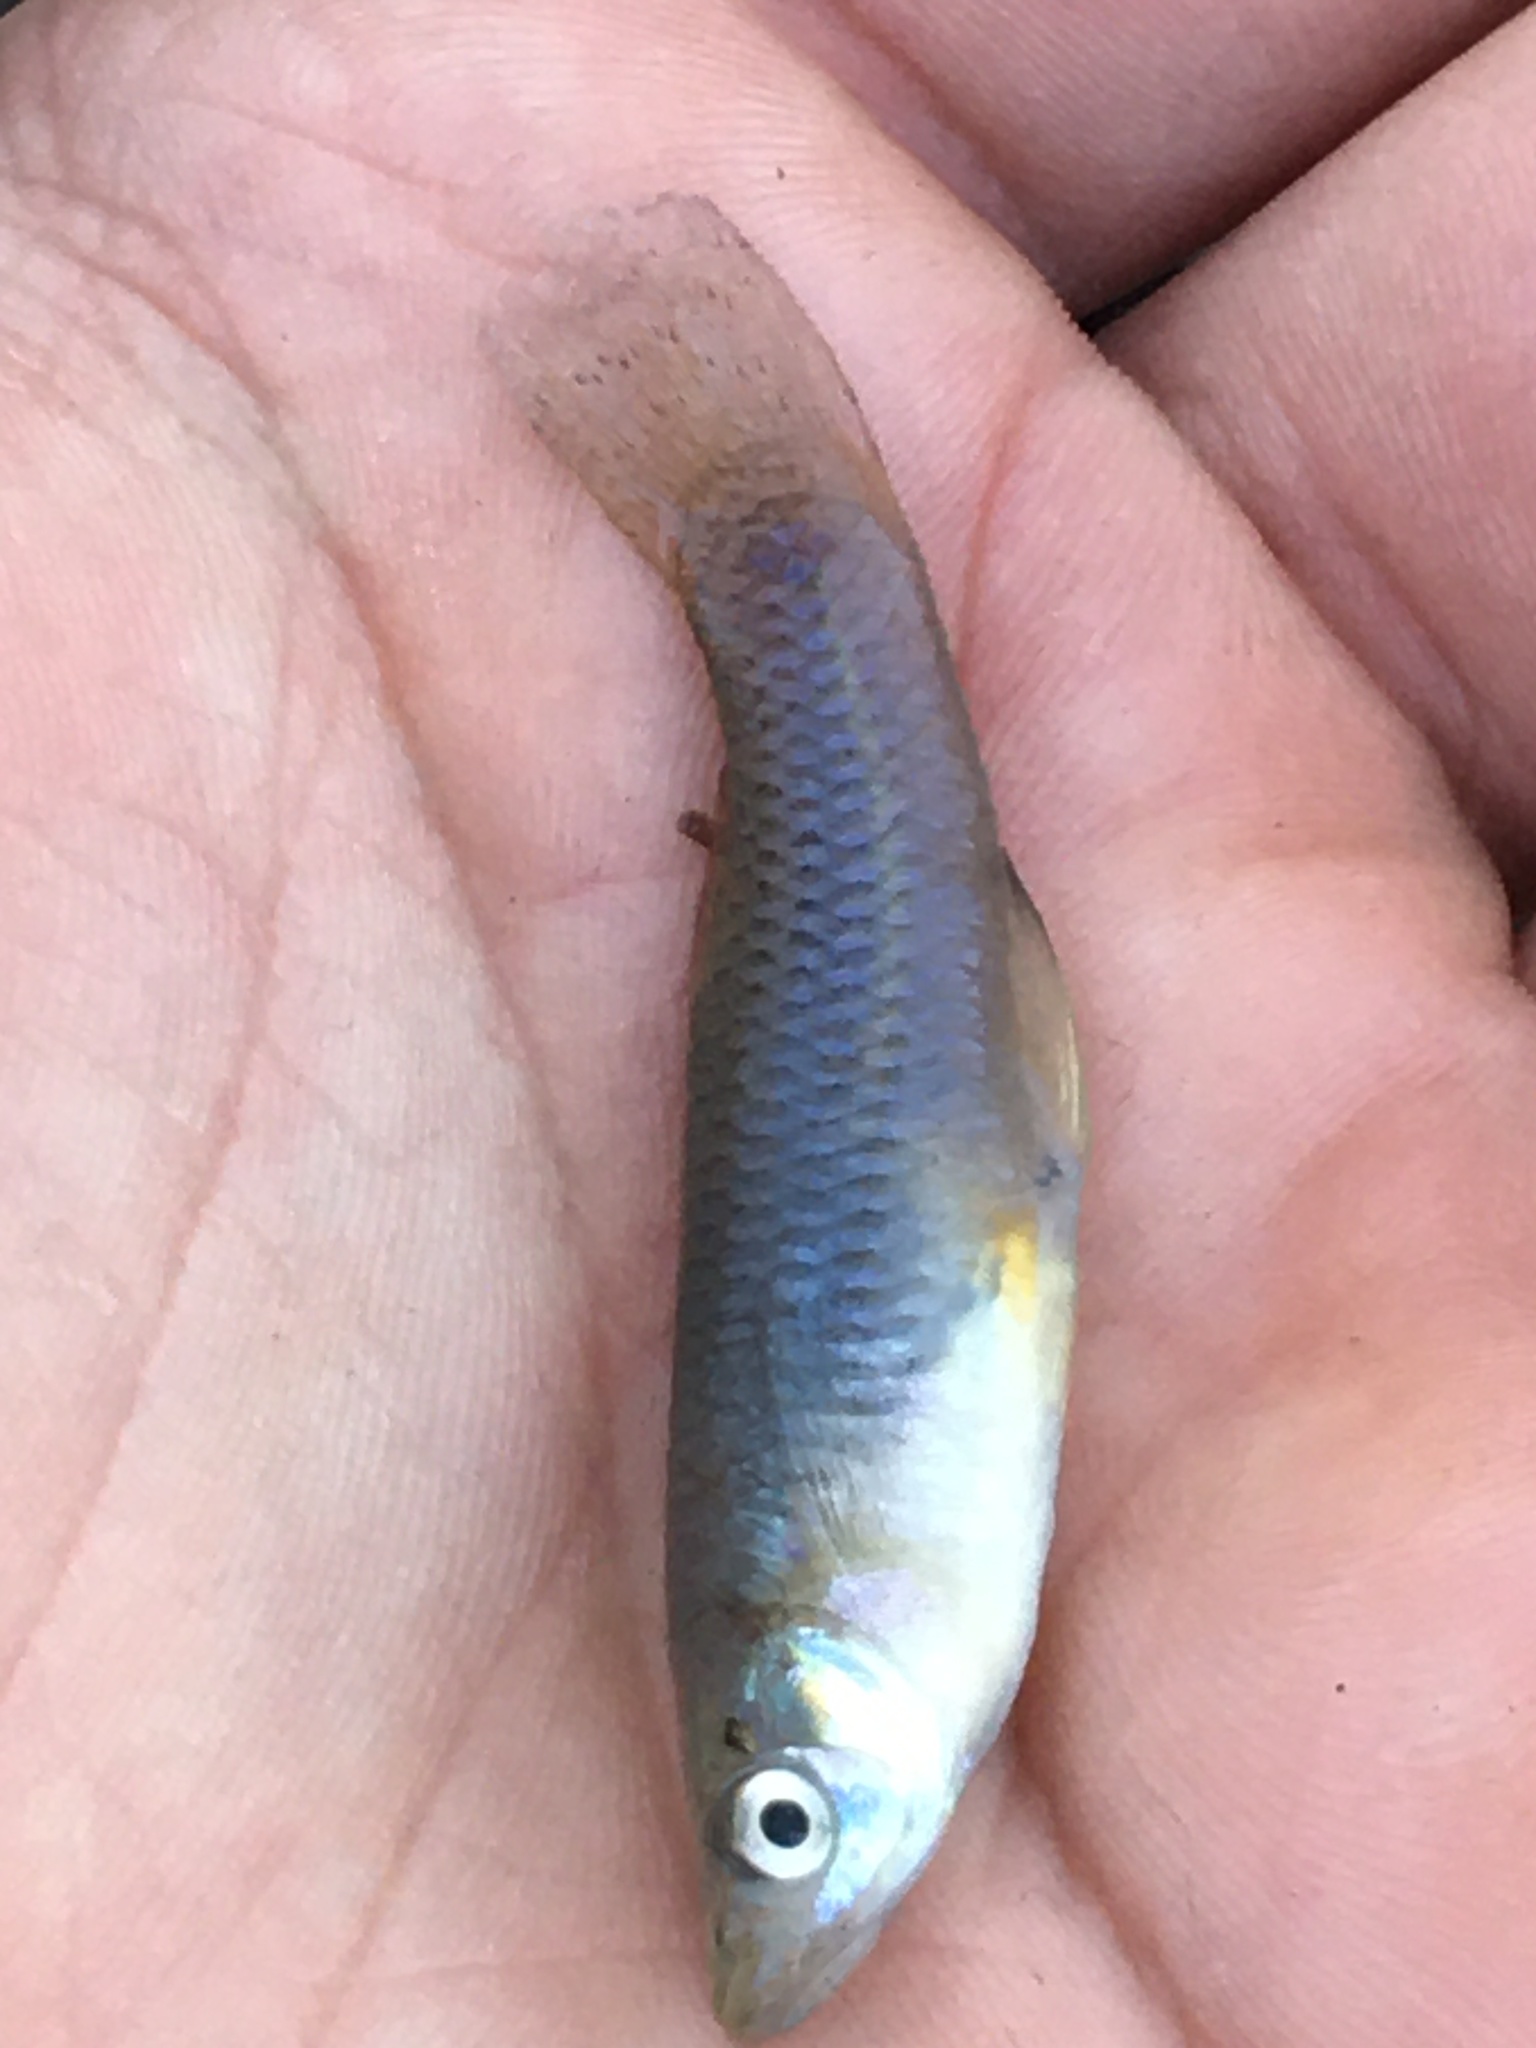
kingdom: Animalia
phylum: Chordata
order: Cyprinodontiformes
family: Poeciliidae
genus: Gambusia
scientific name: Gambusia affinis
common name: Mosquitofish
